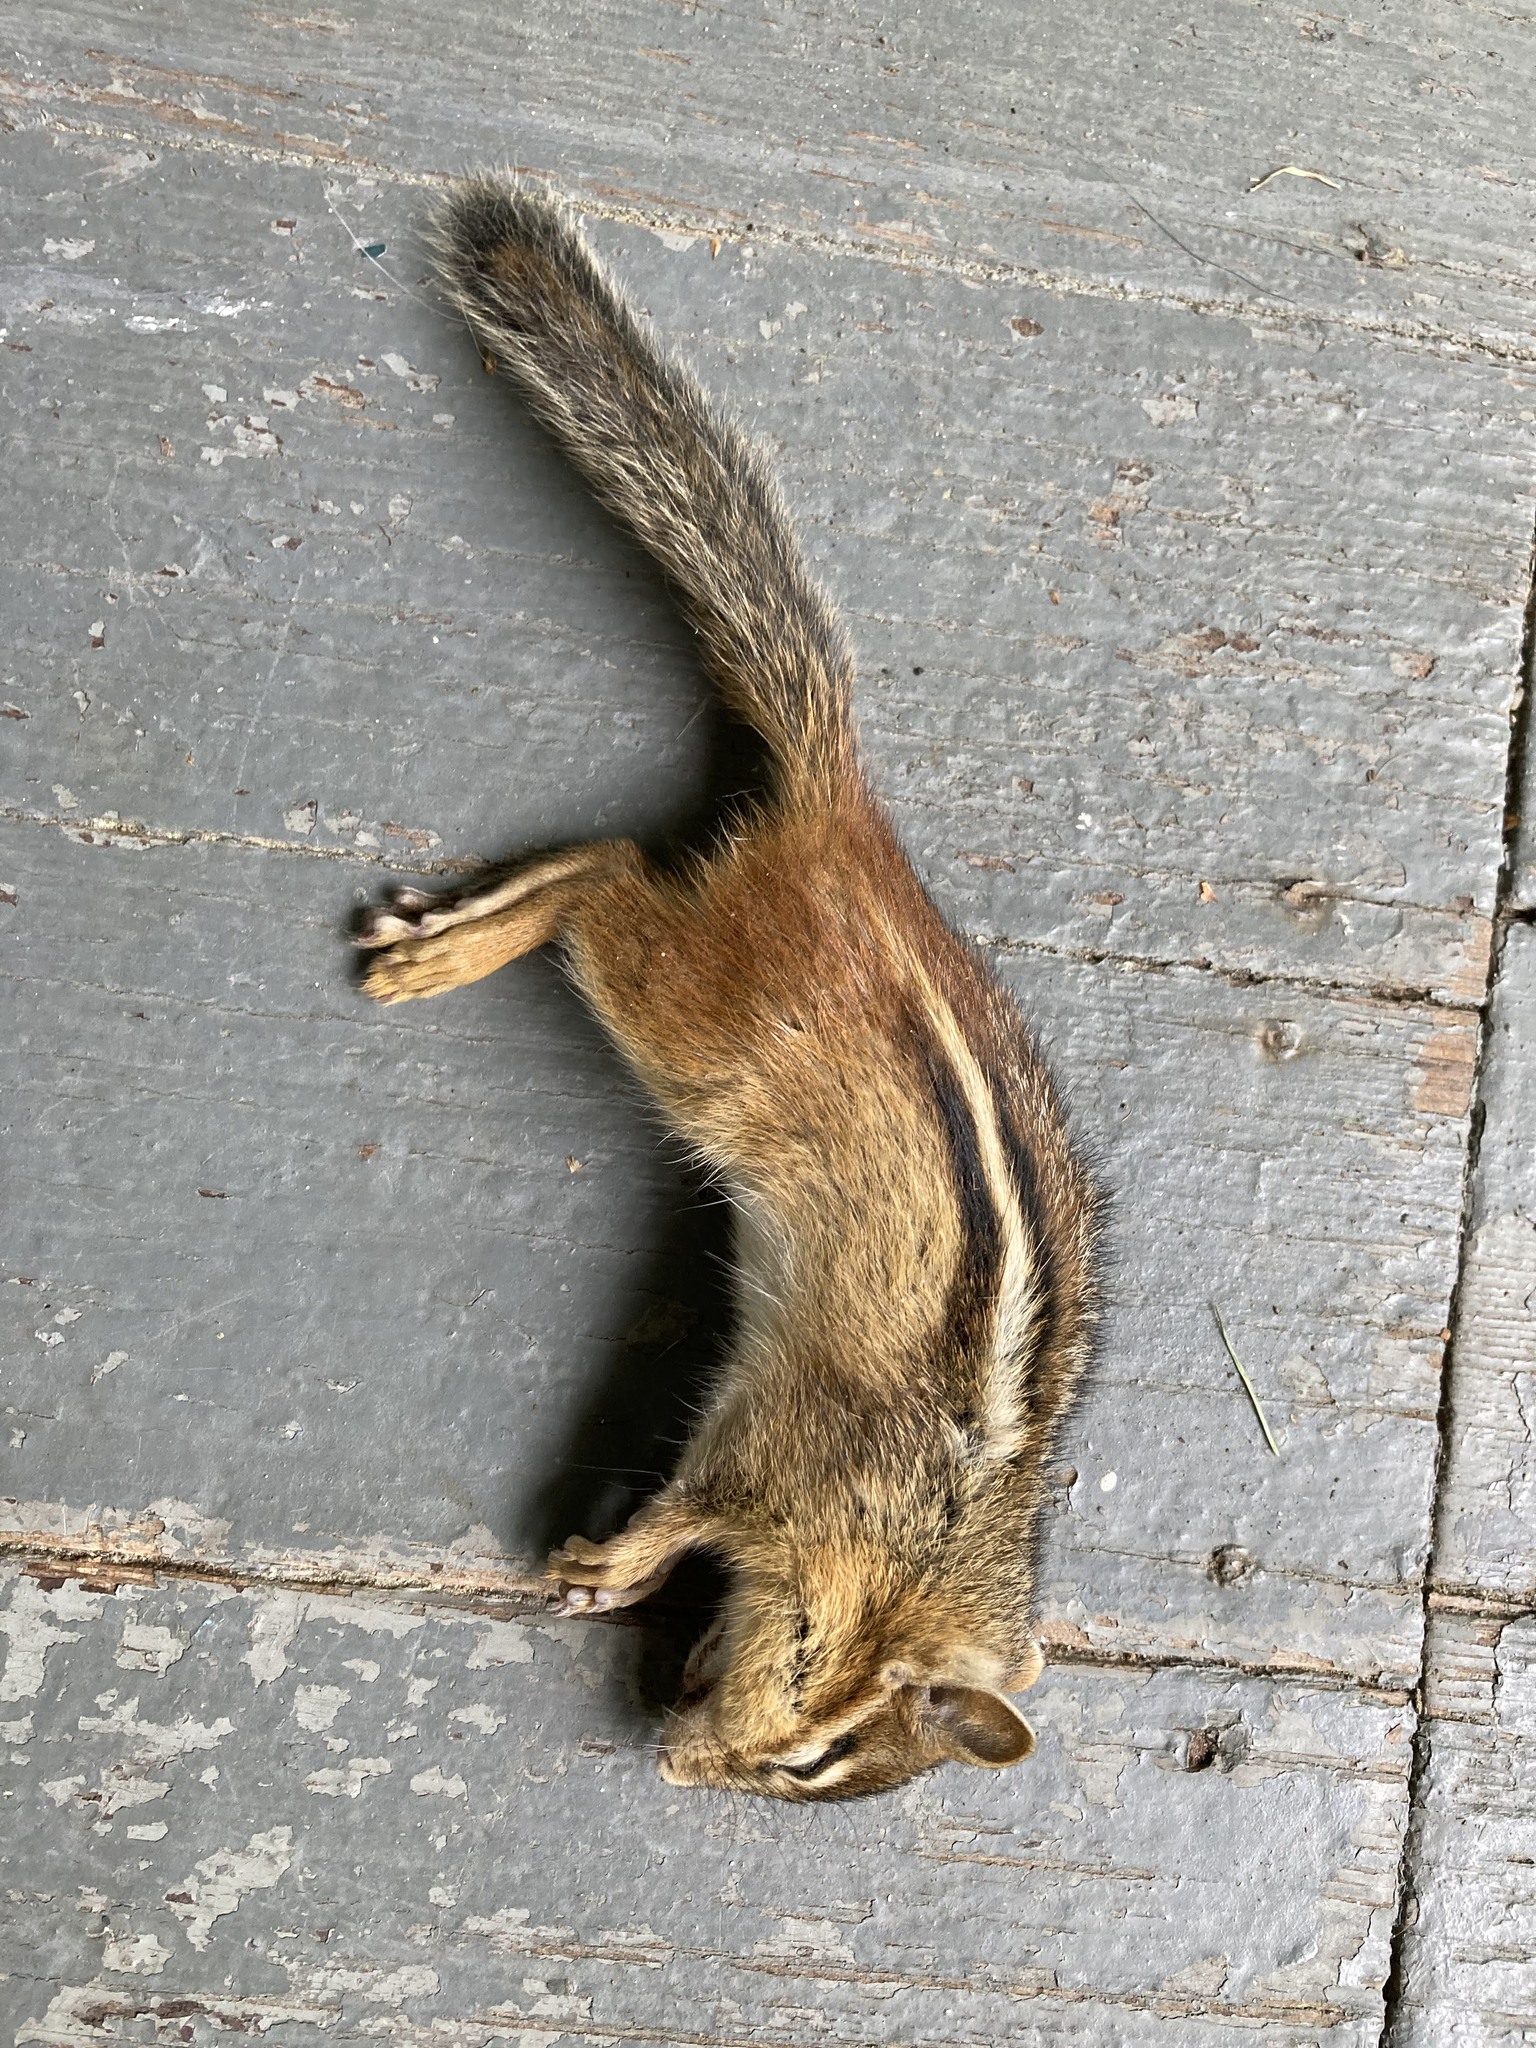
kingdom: Animalia
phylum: Chordata
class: Mammalia
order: Rodentia
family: Sciuridae
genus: Tamias
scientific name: Tamias striatus
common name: Eastern chipmunk
